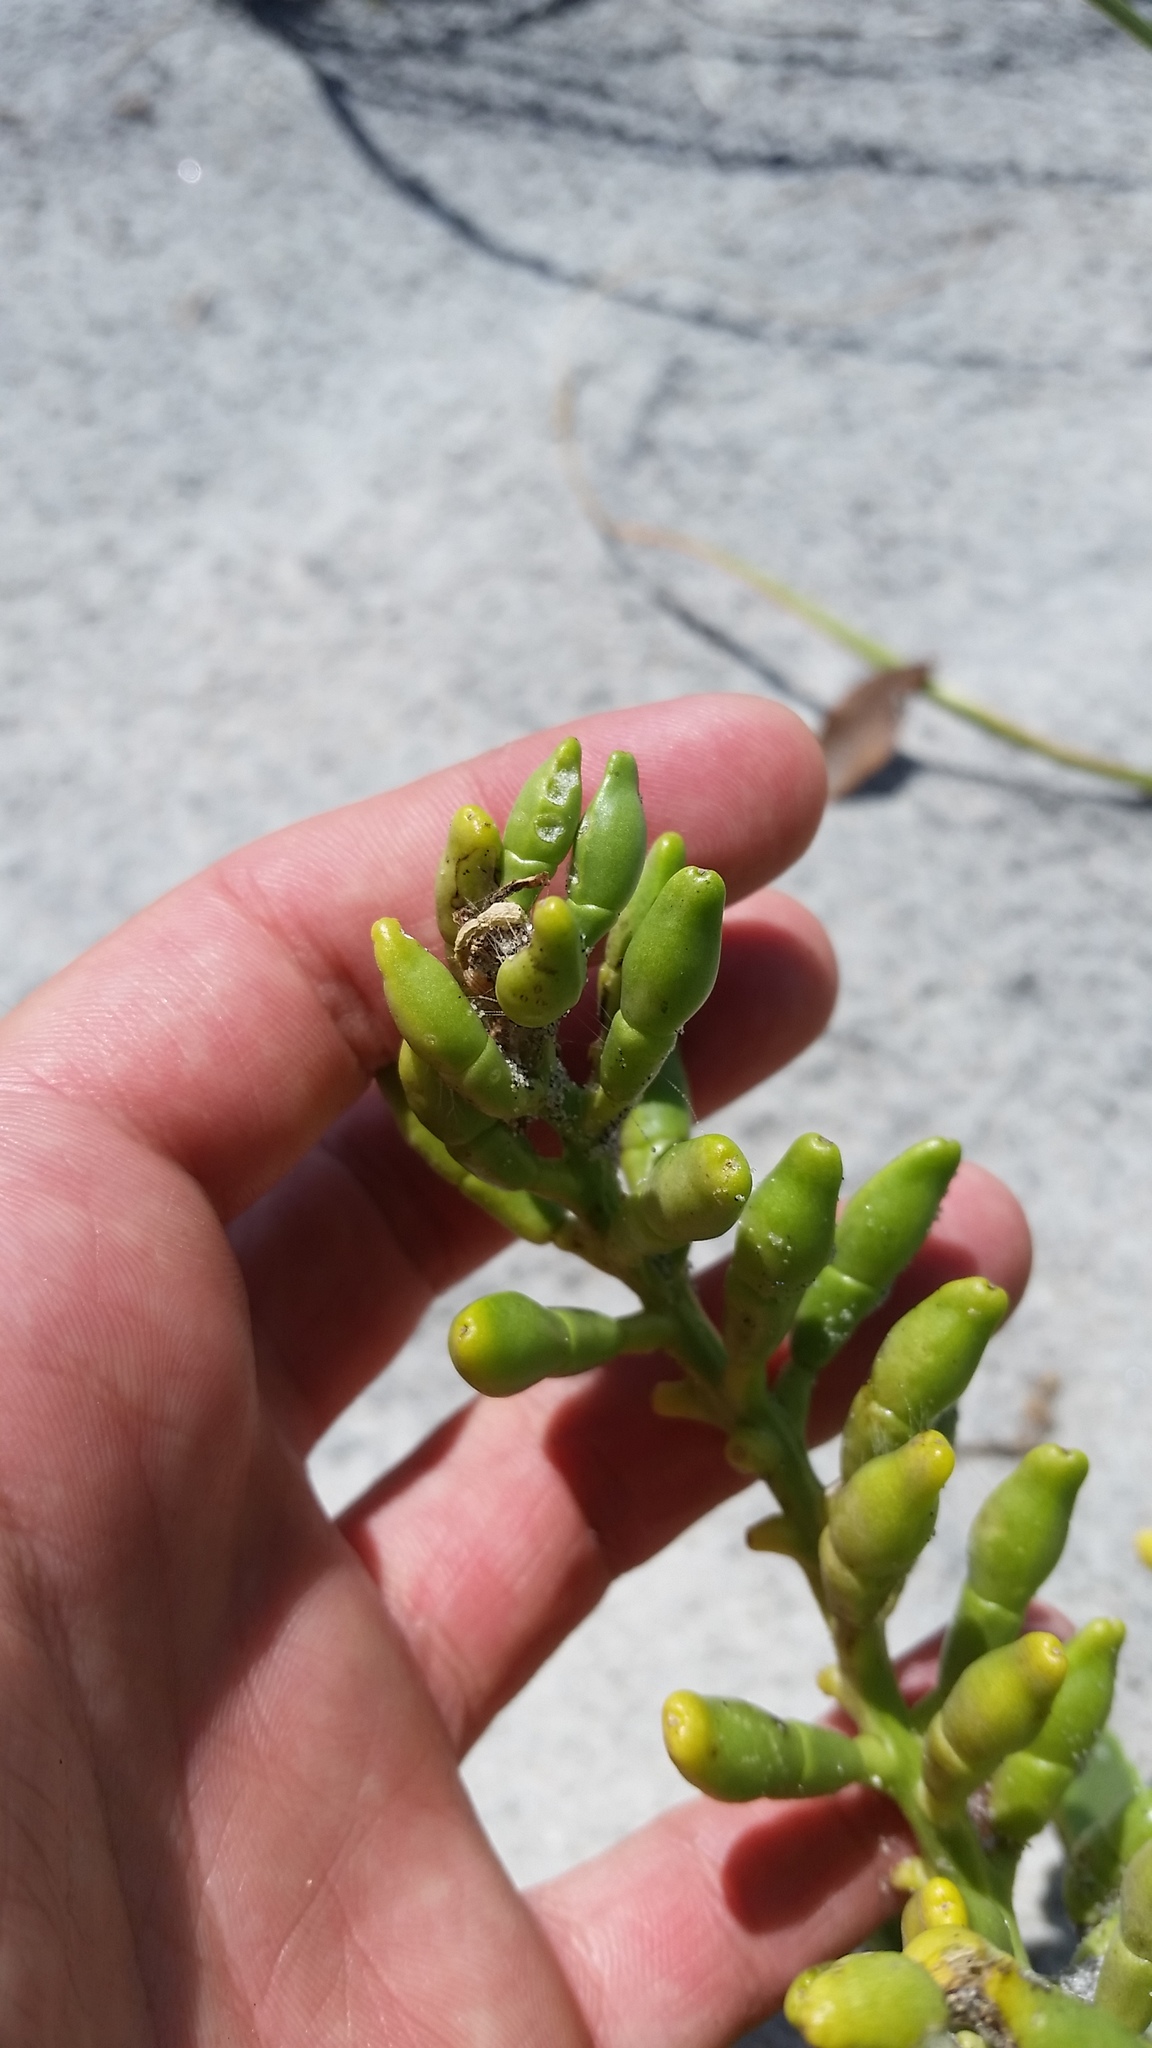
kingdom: Plantae
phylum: Tracheophyta
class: Magnoliopsida
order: Brassicales
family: Brassicaceae
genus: Cakile
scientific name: Cakile edentula
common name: American sea rocket
